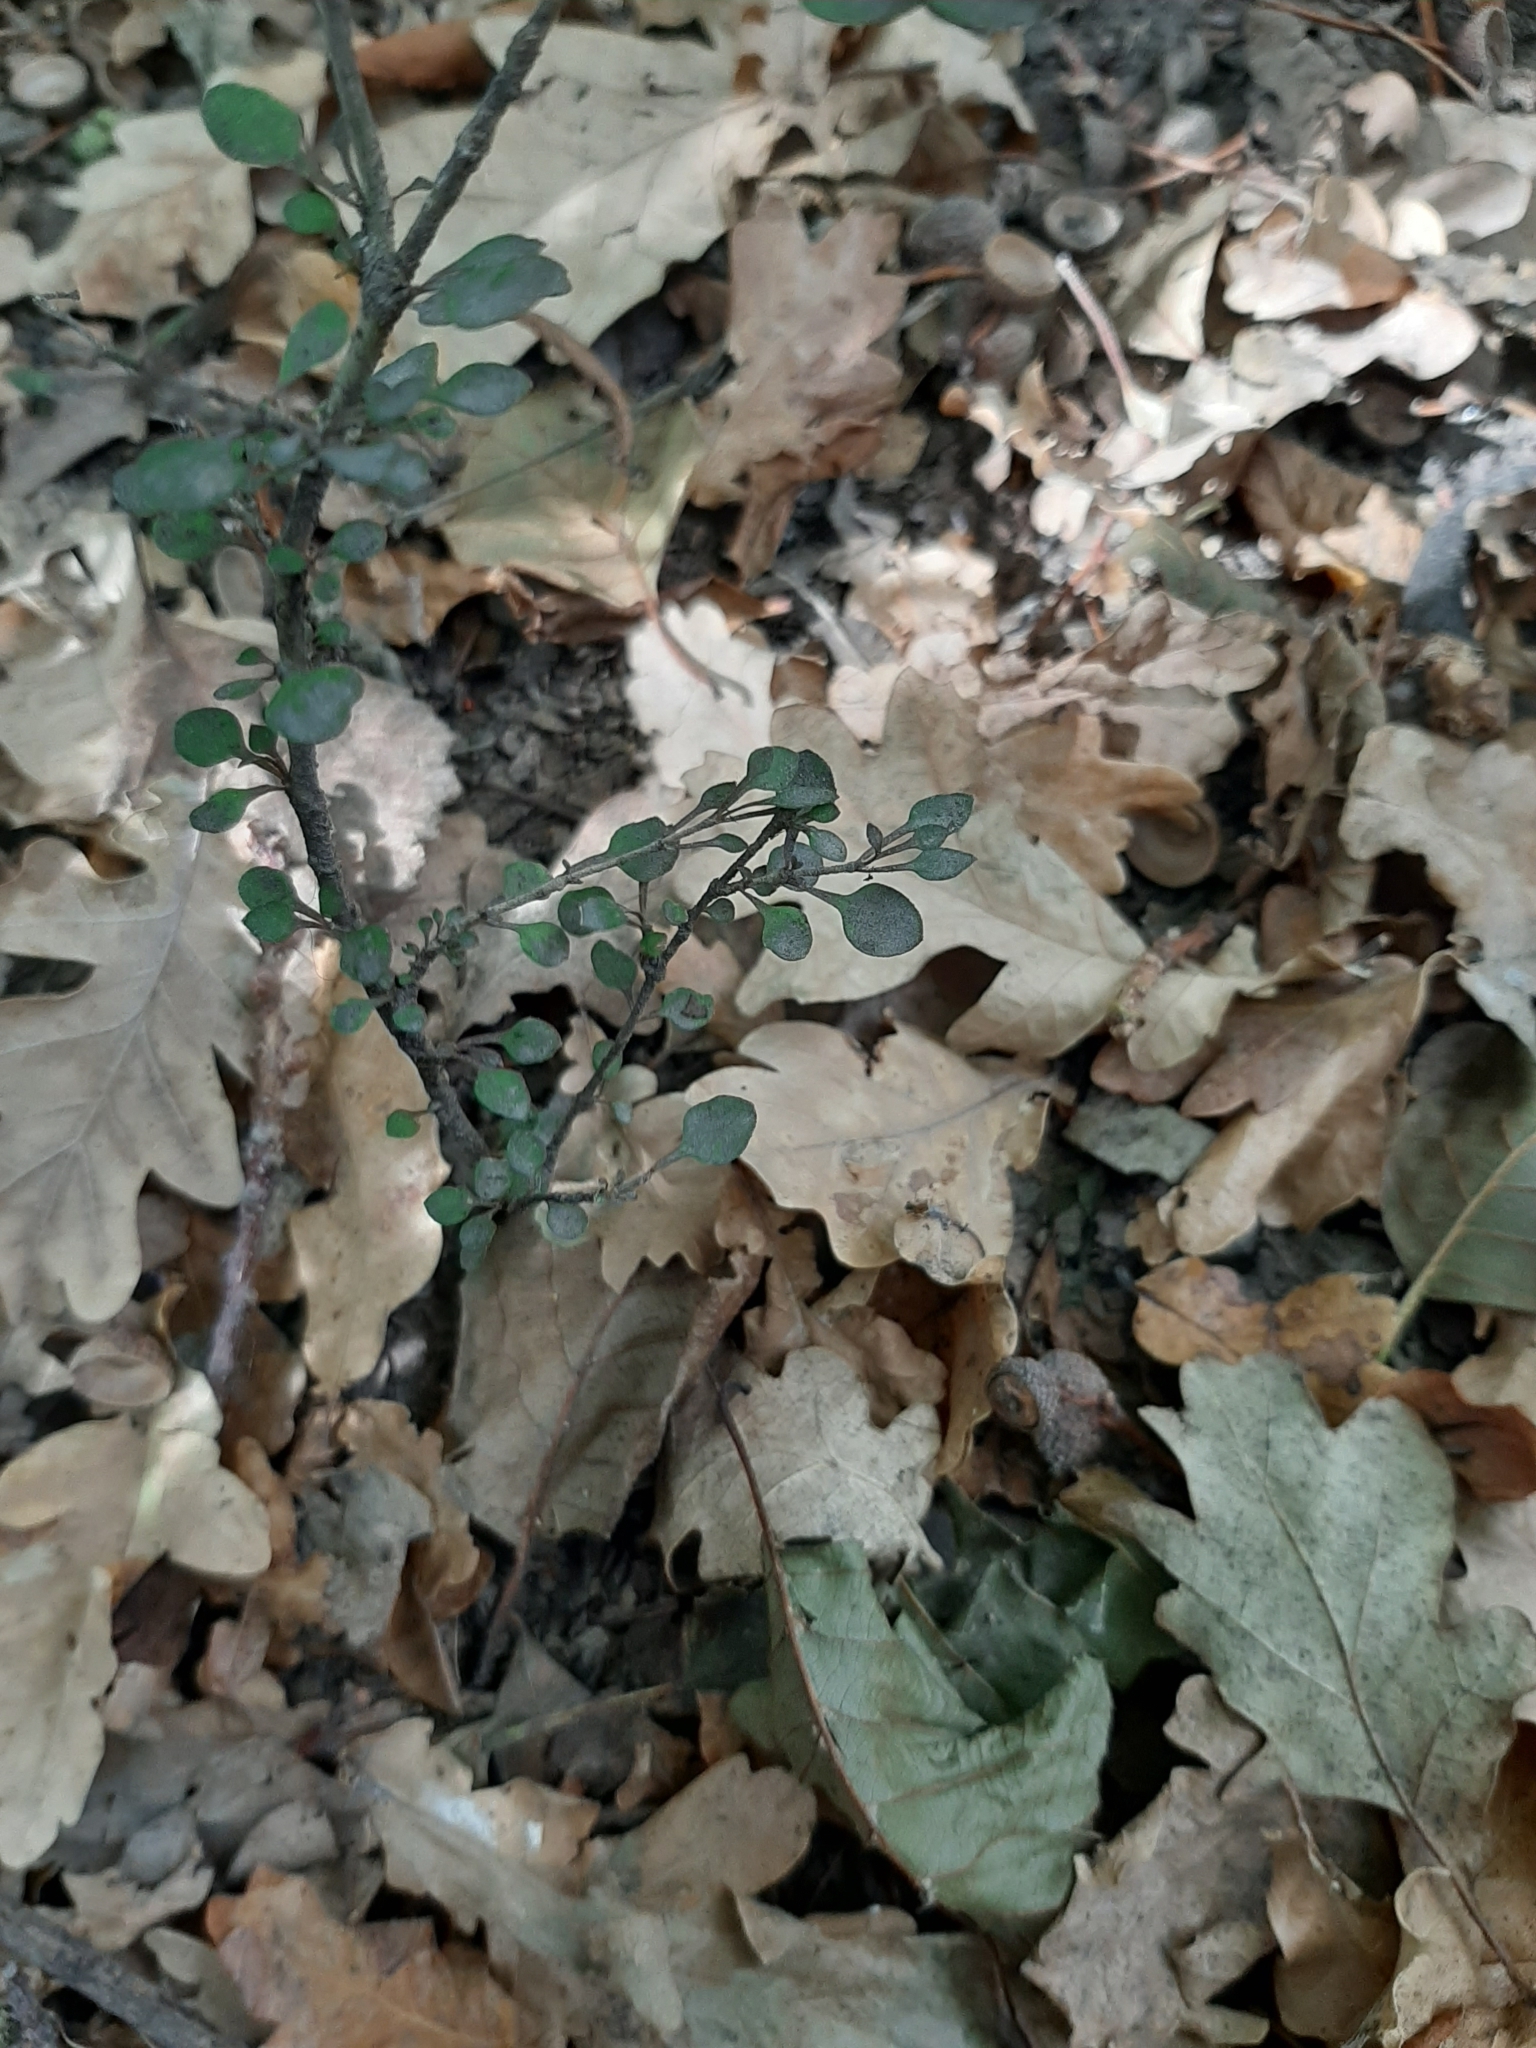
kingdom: Plantae
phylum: Tracheophyta
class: Magnoliopsida
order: Gentianales
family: Rubiaceae
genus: Coprosma
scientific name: Coprosma virescens
